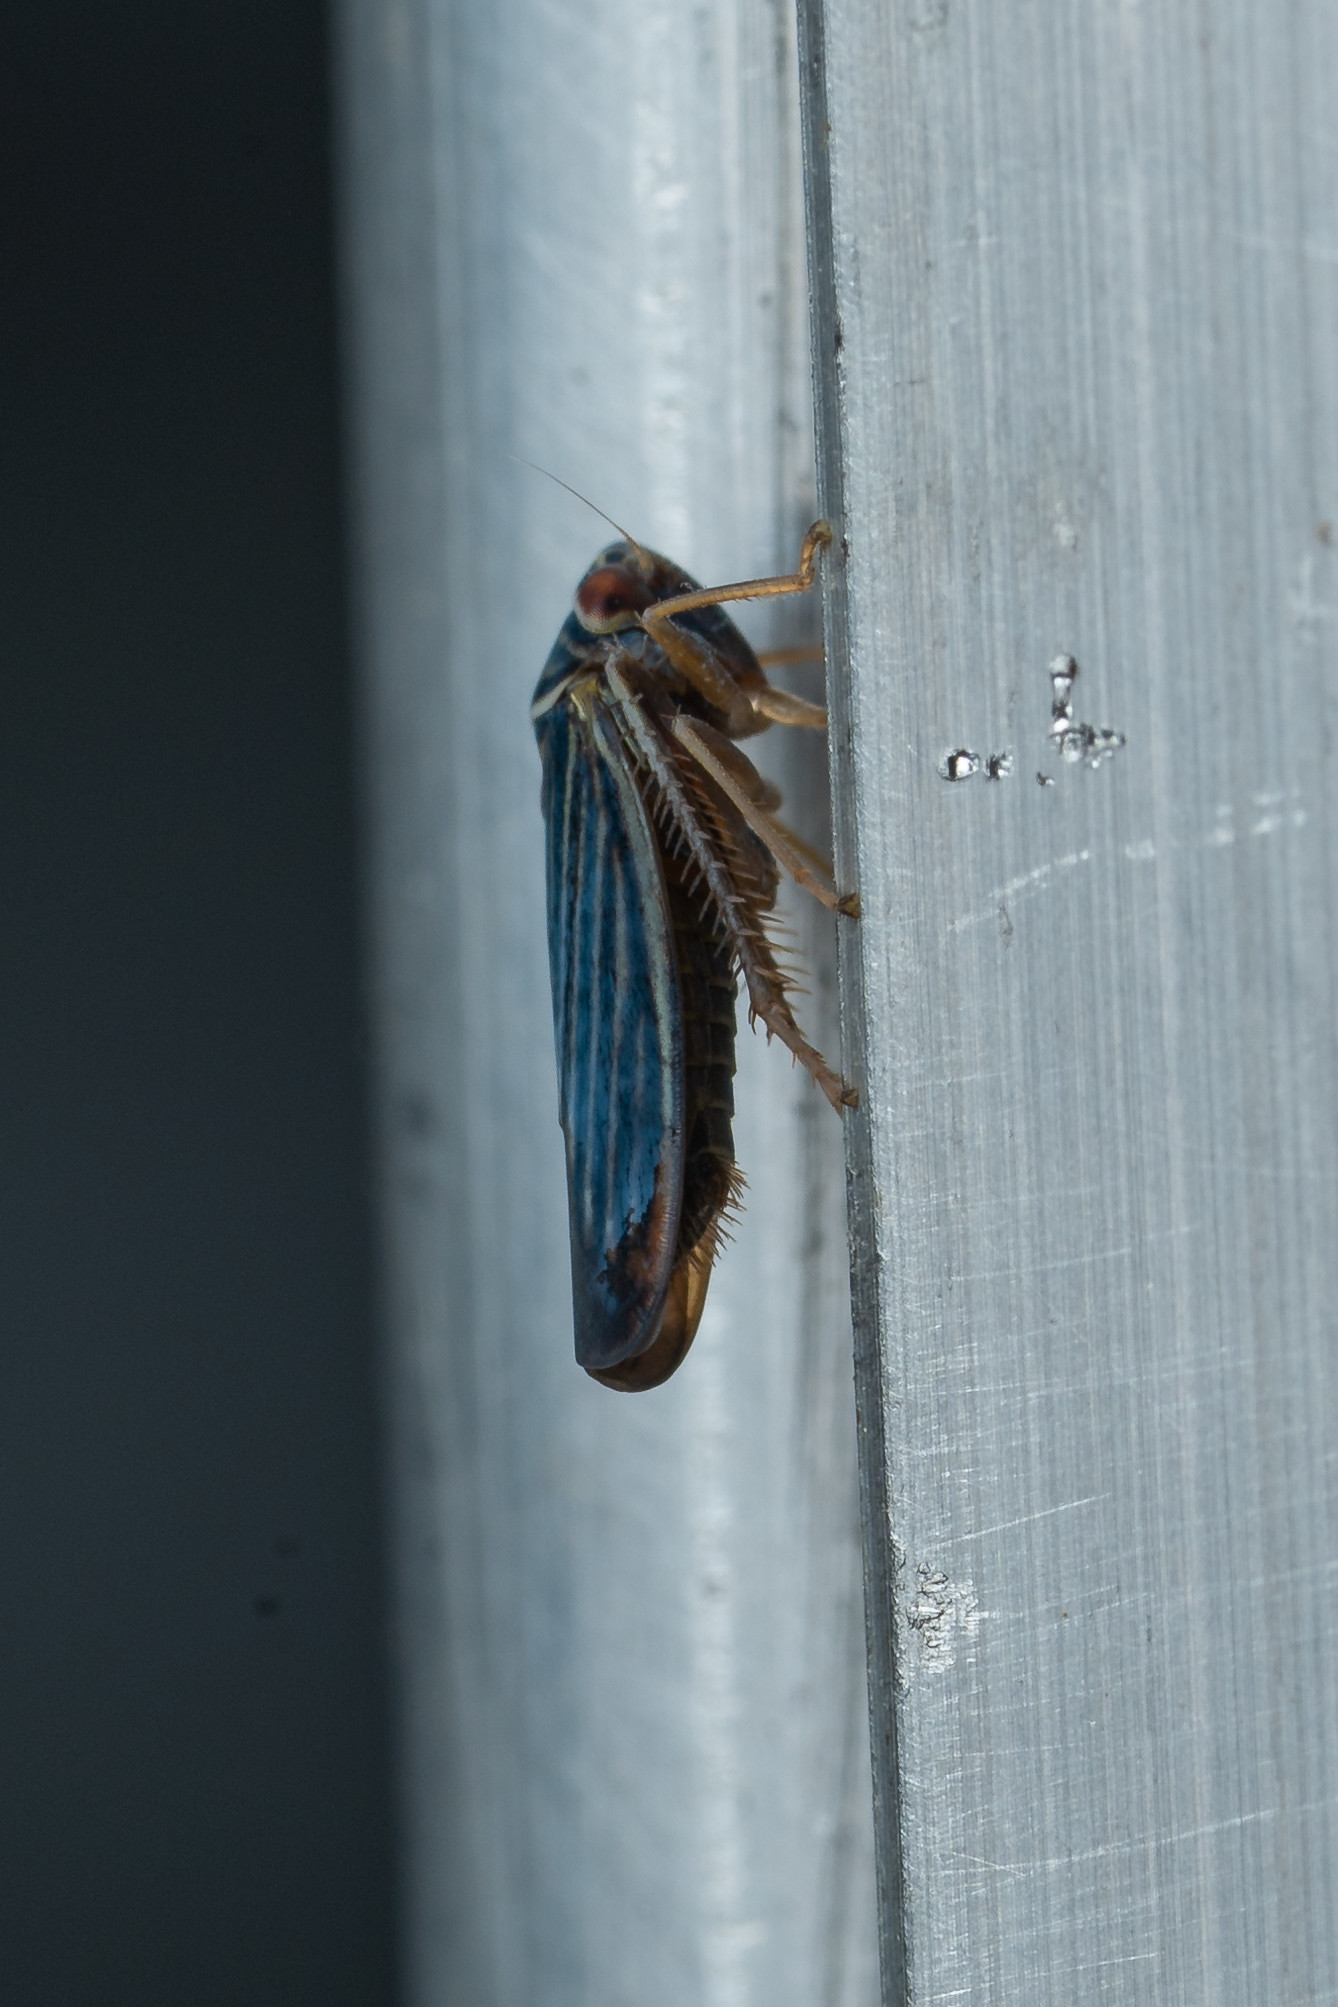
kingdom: Animalia
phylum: Arthropoda
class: Insecta
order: Hemiptera
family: Cicadellidae
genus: Tylozygus
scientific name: Tylozygus bifidus
